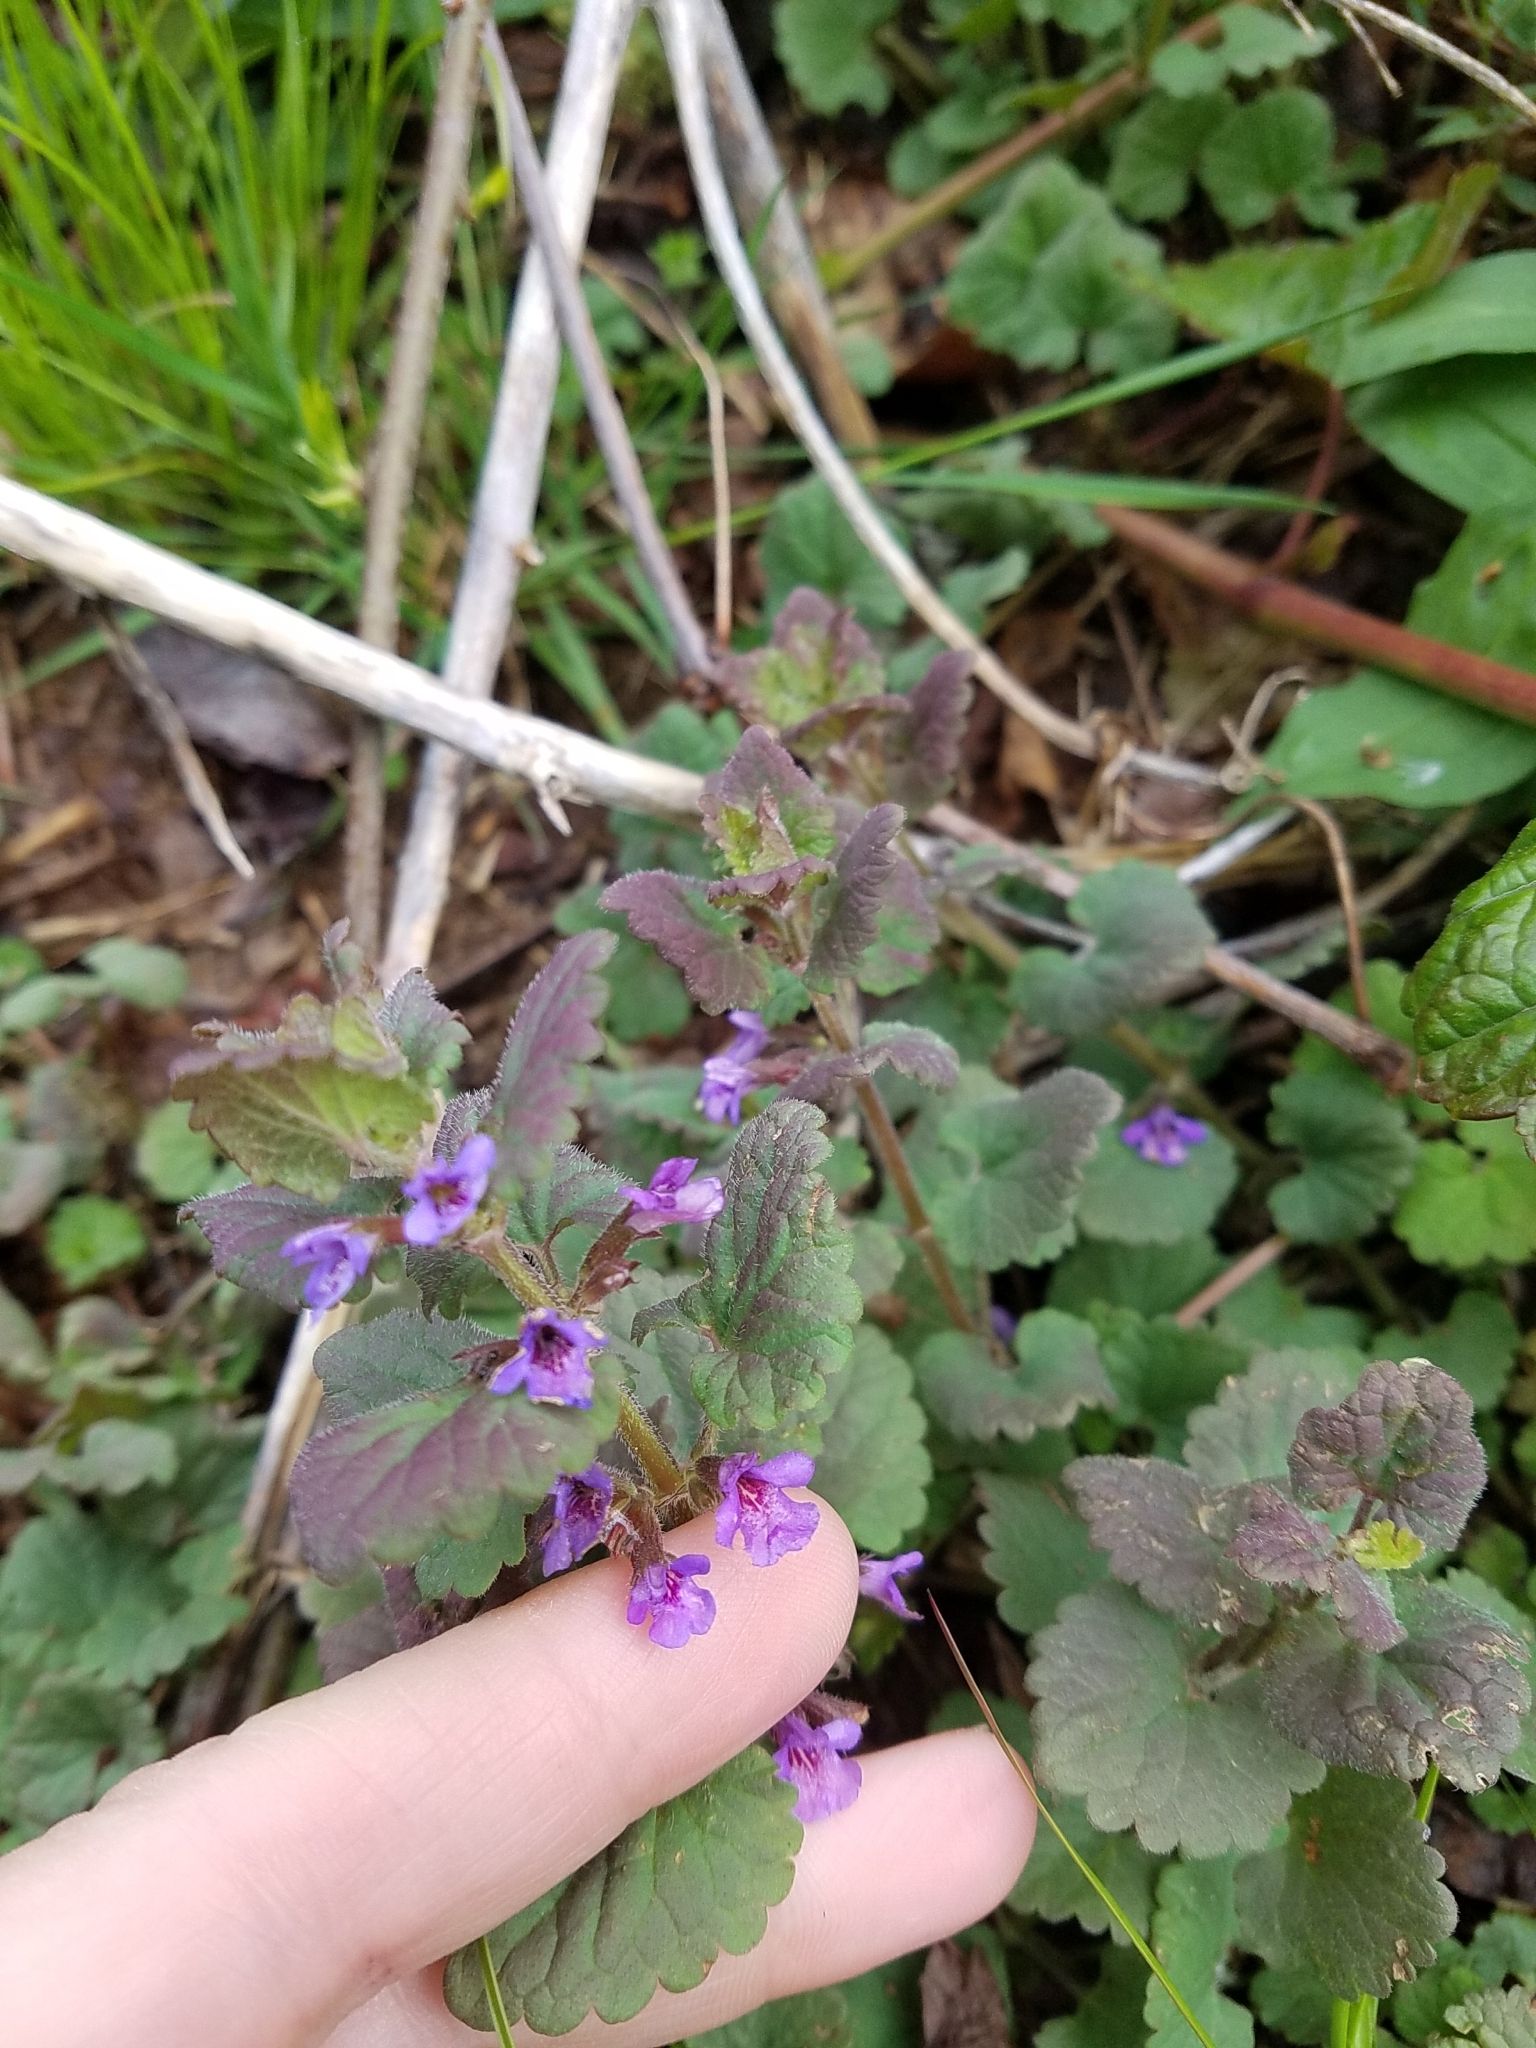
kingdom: Plantae
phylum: Tracheophyta
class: Magnoliopsida
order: Lamiales
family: Lamiaceae
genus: Glechoma
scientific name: Glechoma hederacea
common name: Ground ivy
